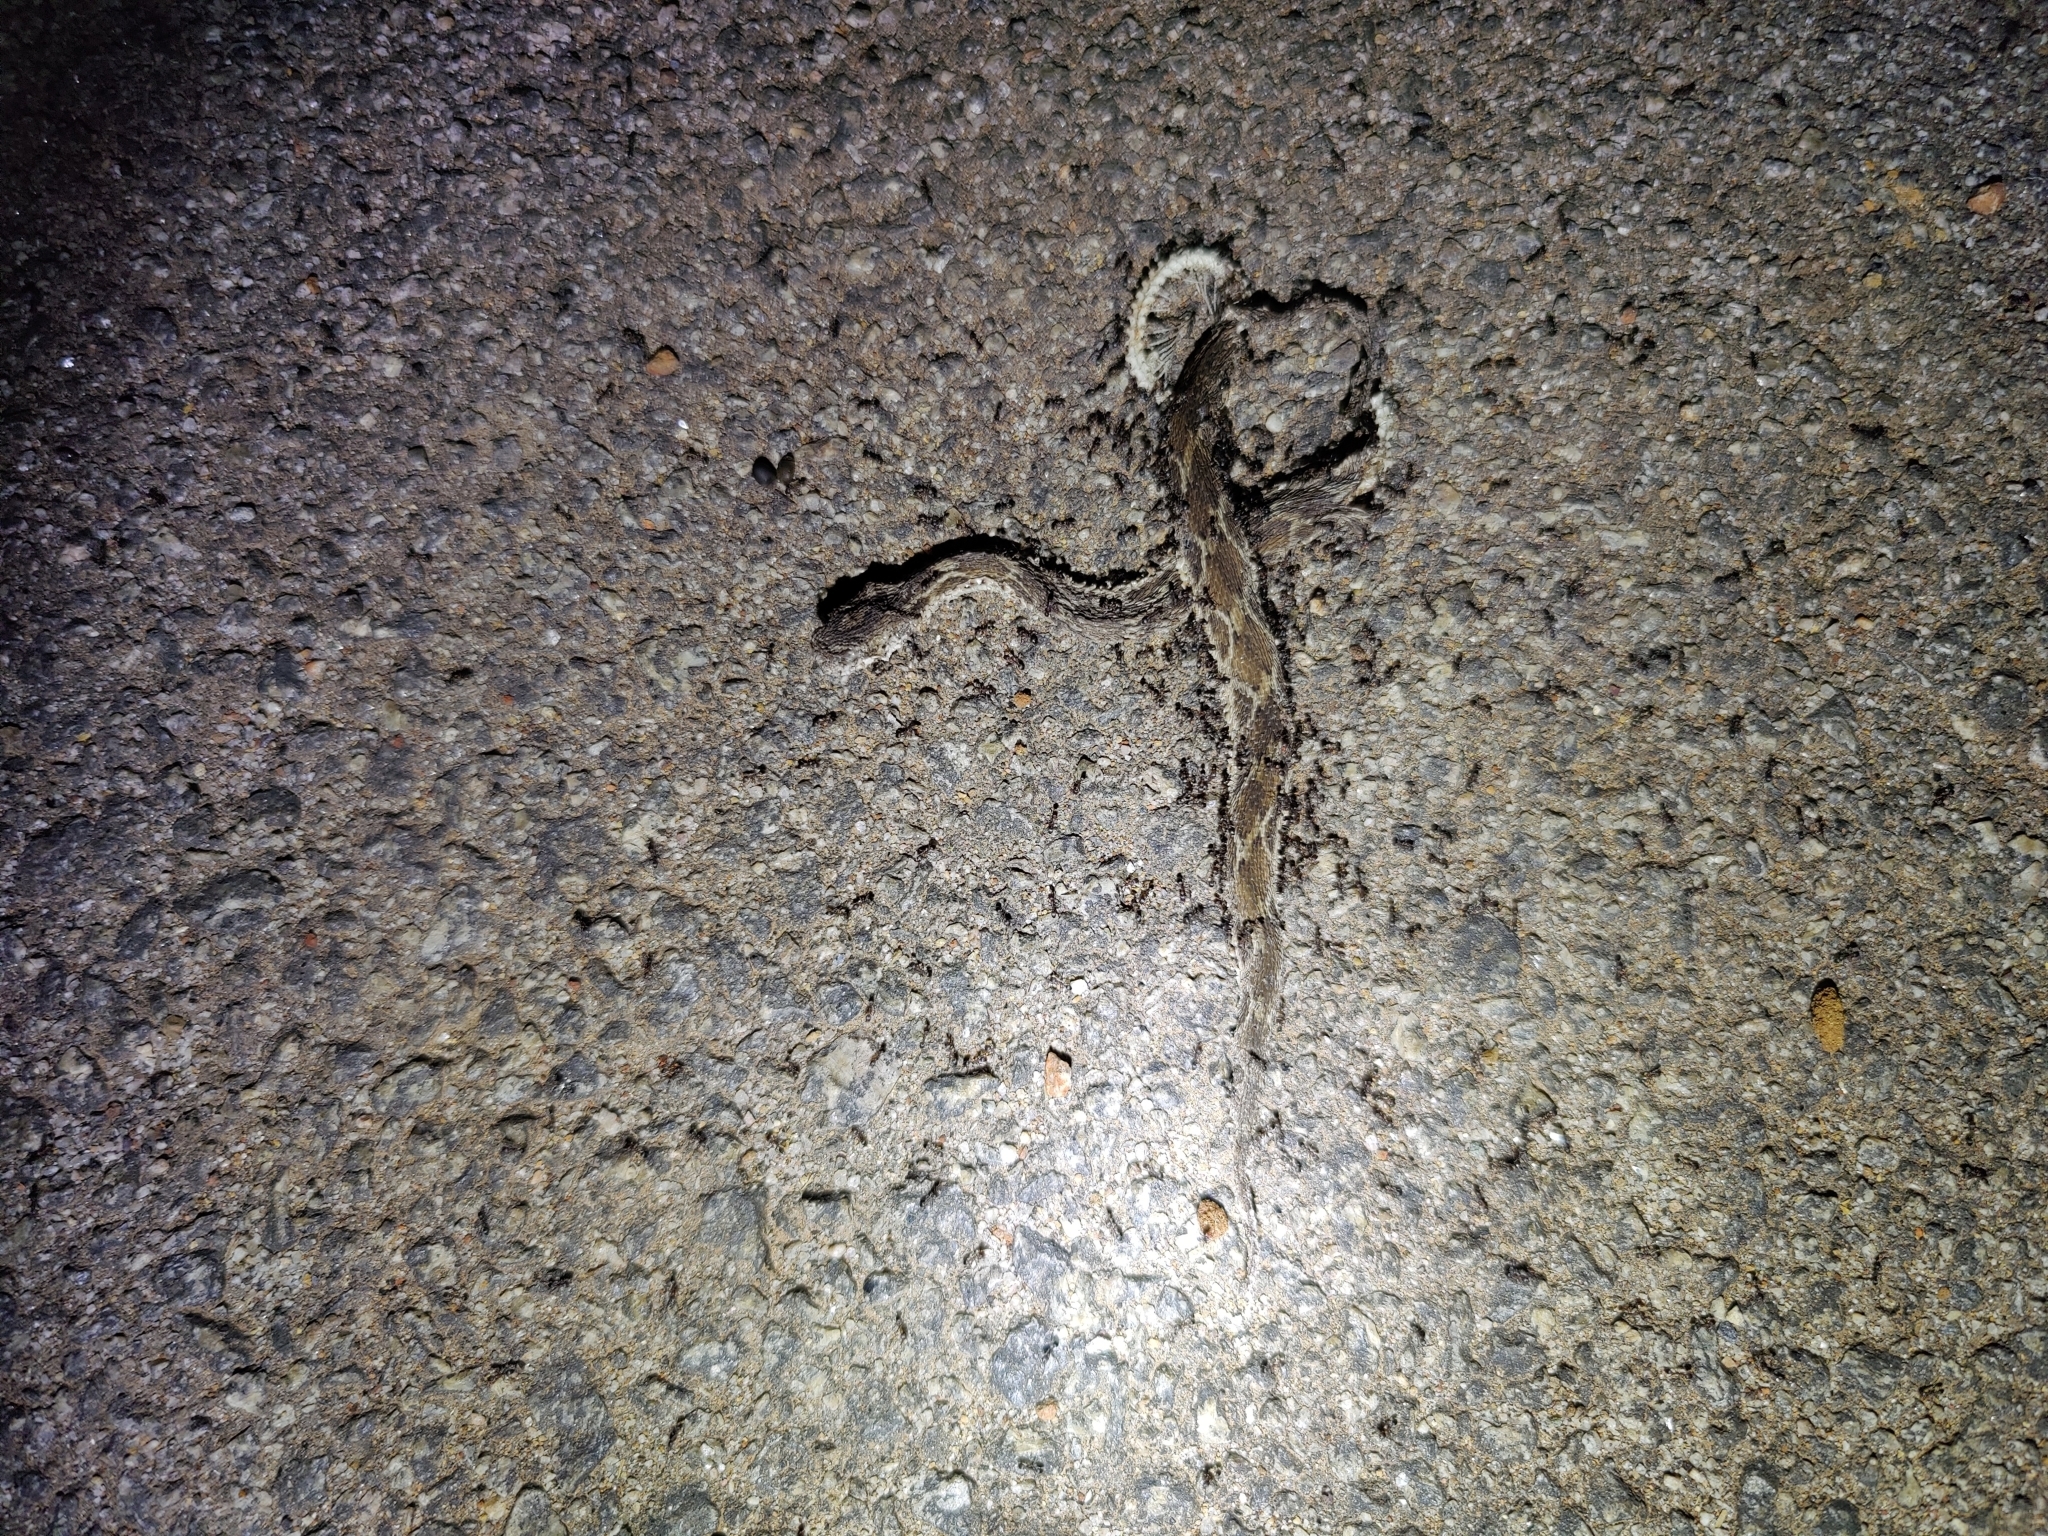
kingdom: Animalia
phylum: Chordata
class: Squamata
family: Viperidae
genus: Echis
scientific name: Echis carinatus
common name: Saw-scaled viper
